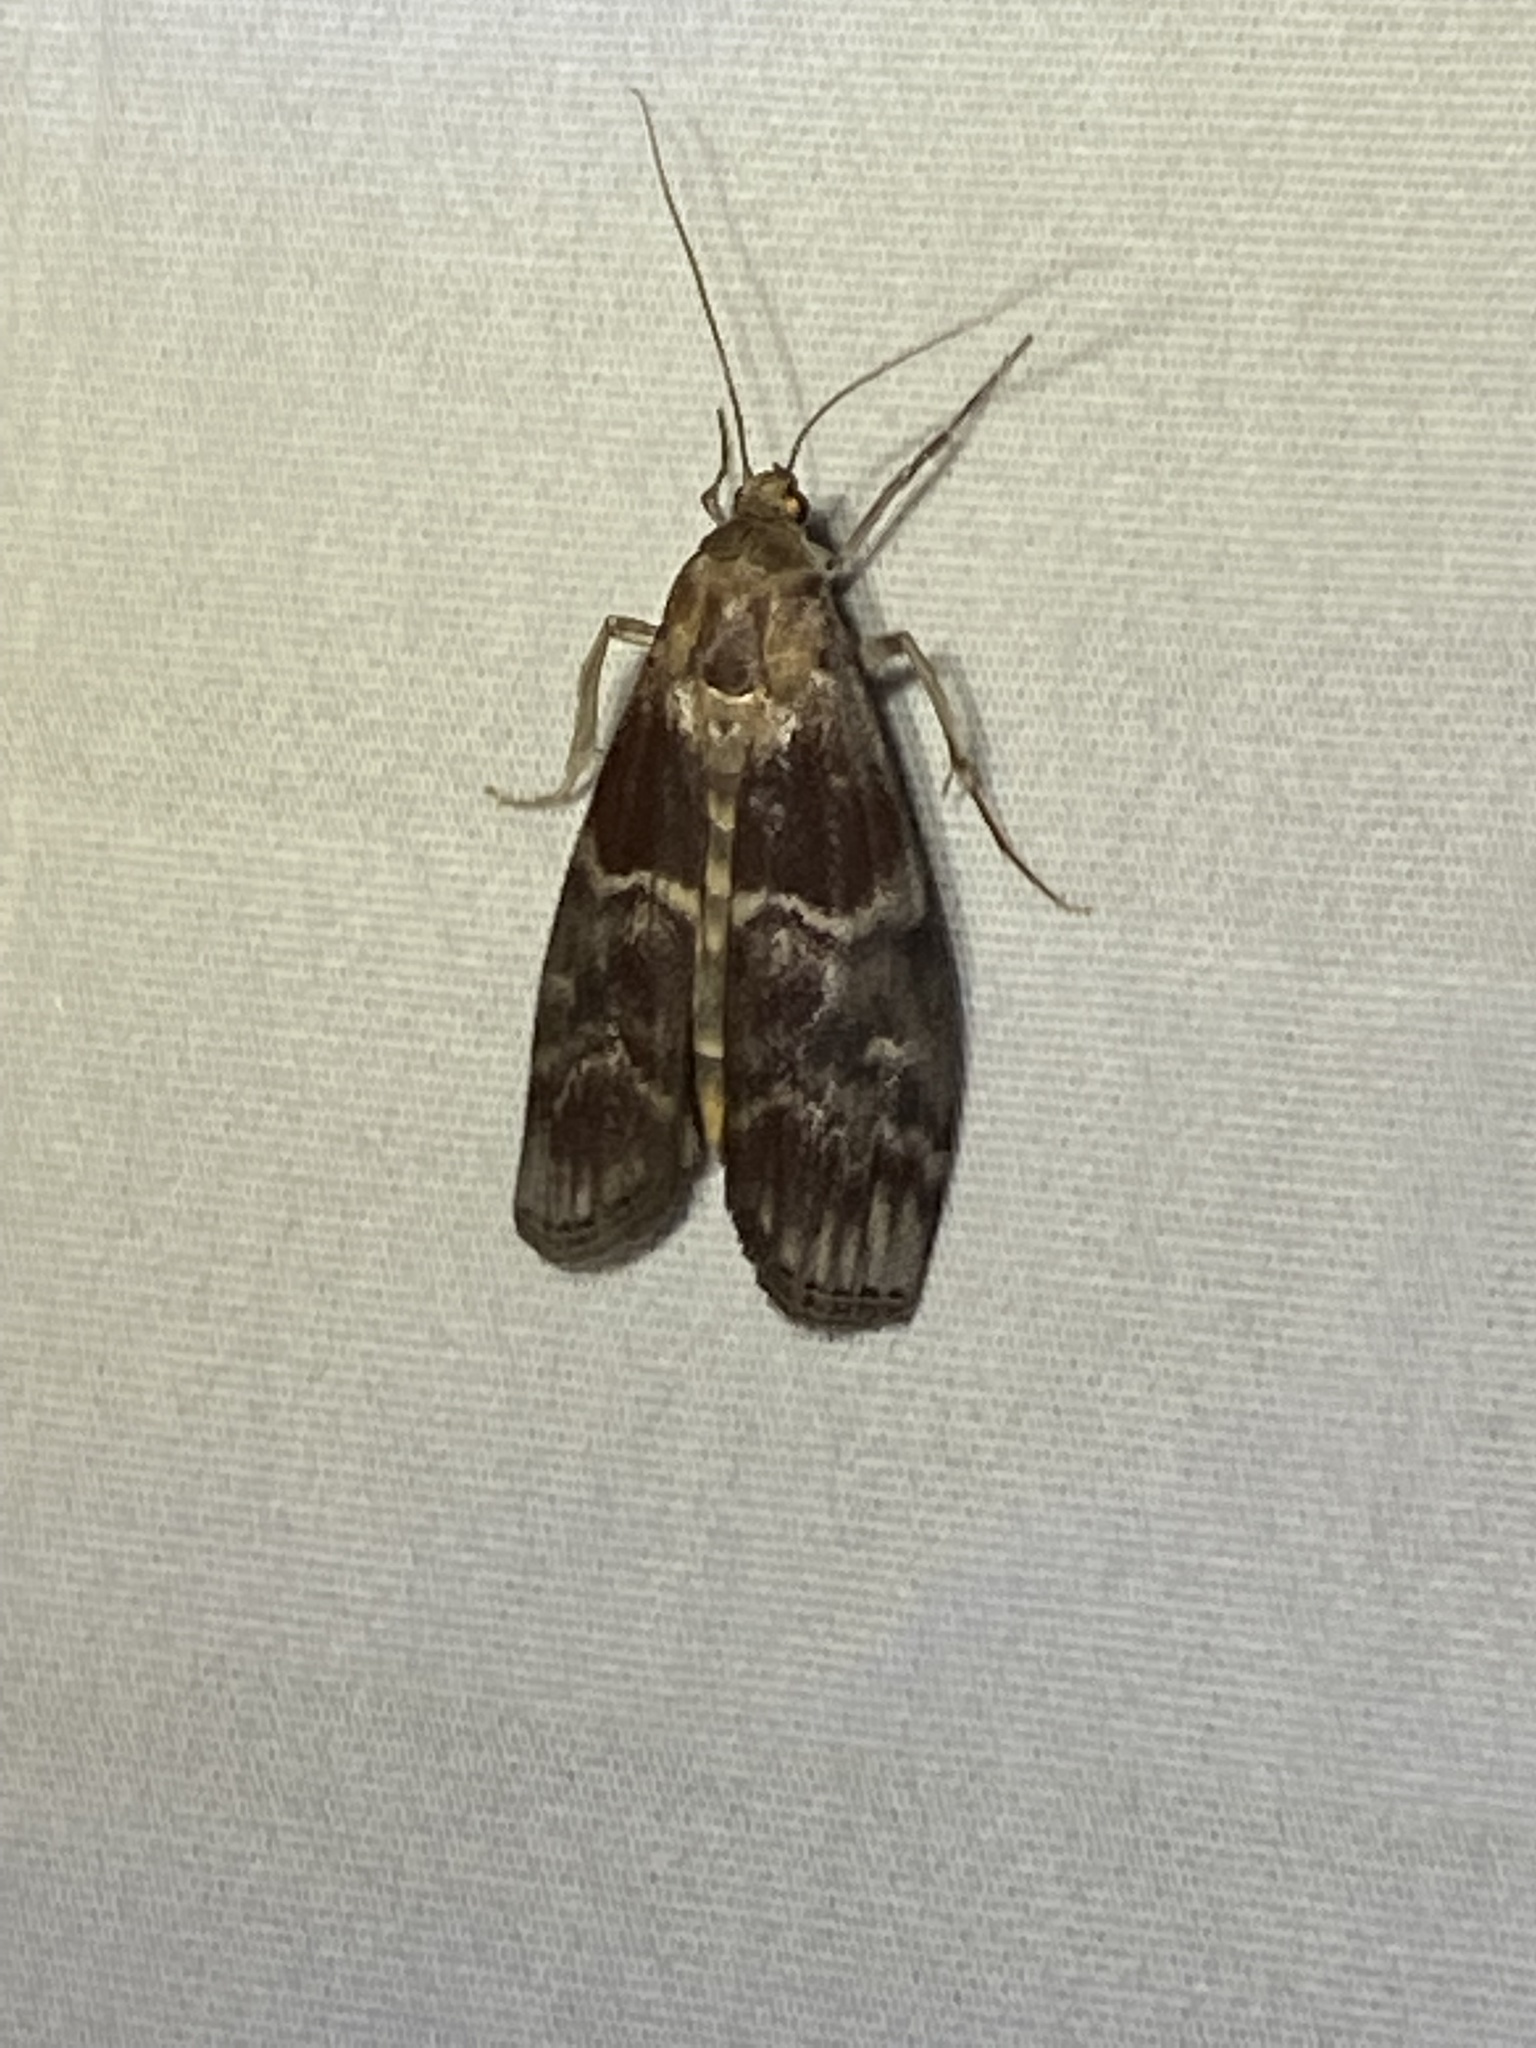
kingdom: Animalia
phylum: Arthropoda
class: Insecta
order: Lepidoptera
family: Pyralidae
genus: Euzophera
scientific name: Euzophera ostricolorella
